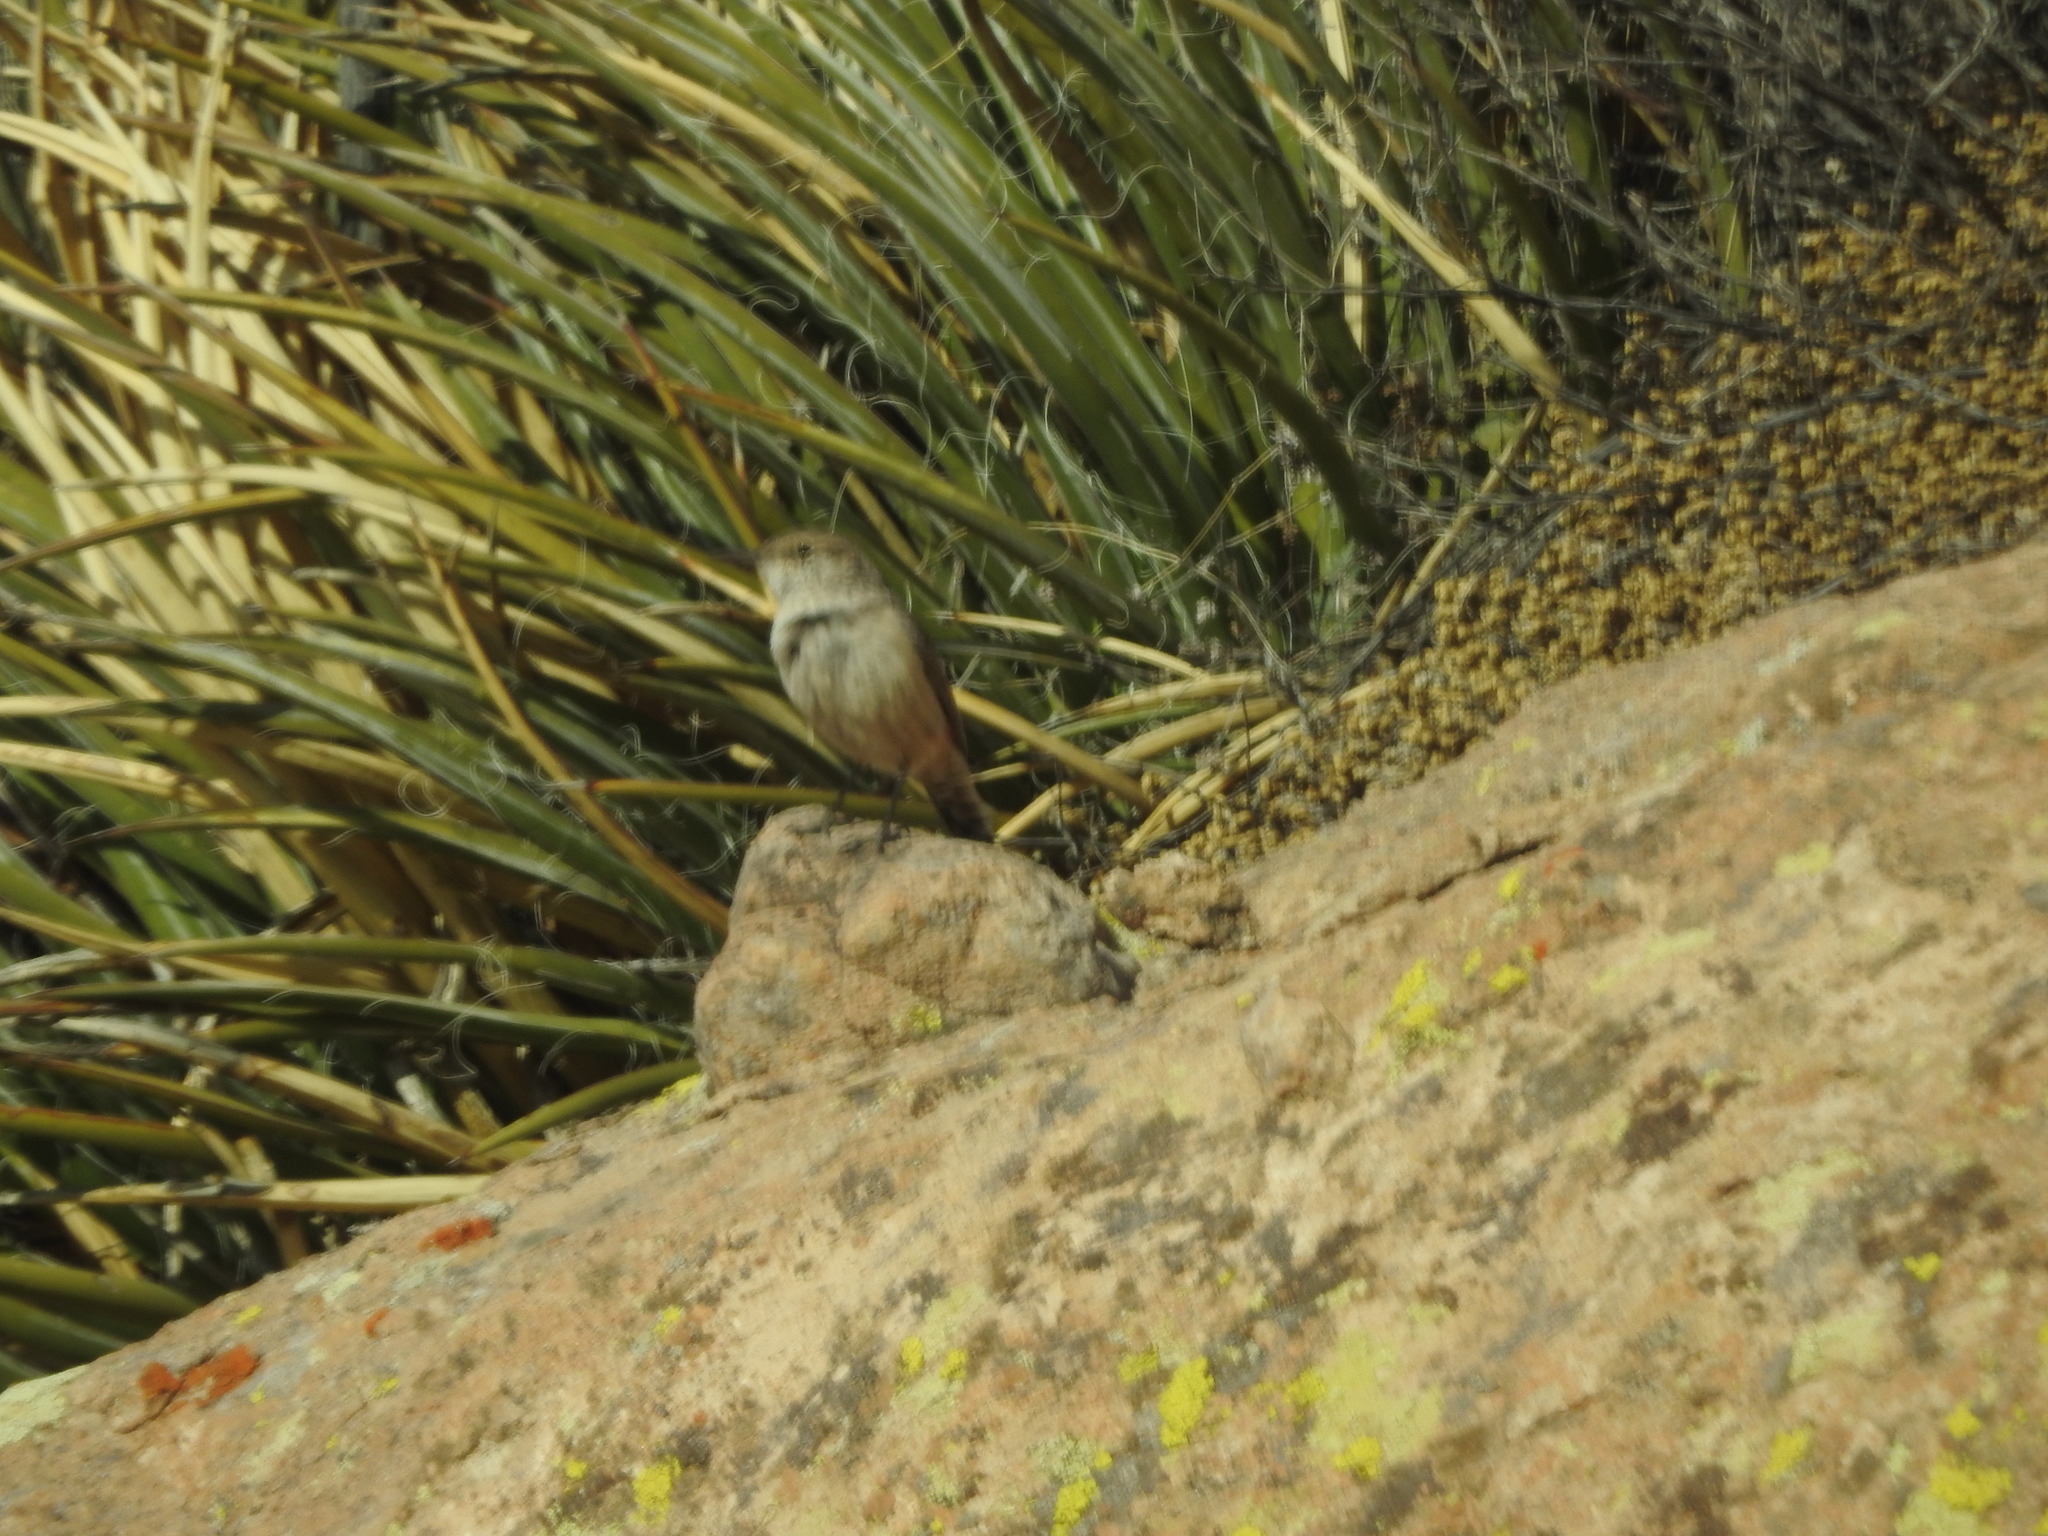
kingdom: Animalia
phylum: Chordata
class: Aves
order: Passeriformes
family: Troglodytidae
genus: Salpinctes
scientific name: Salpinctes obsoletus
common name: Rock wren
